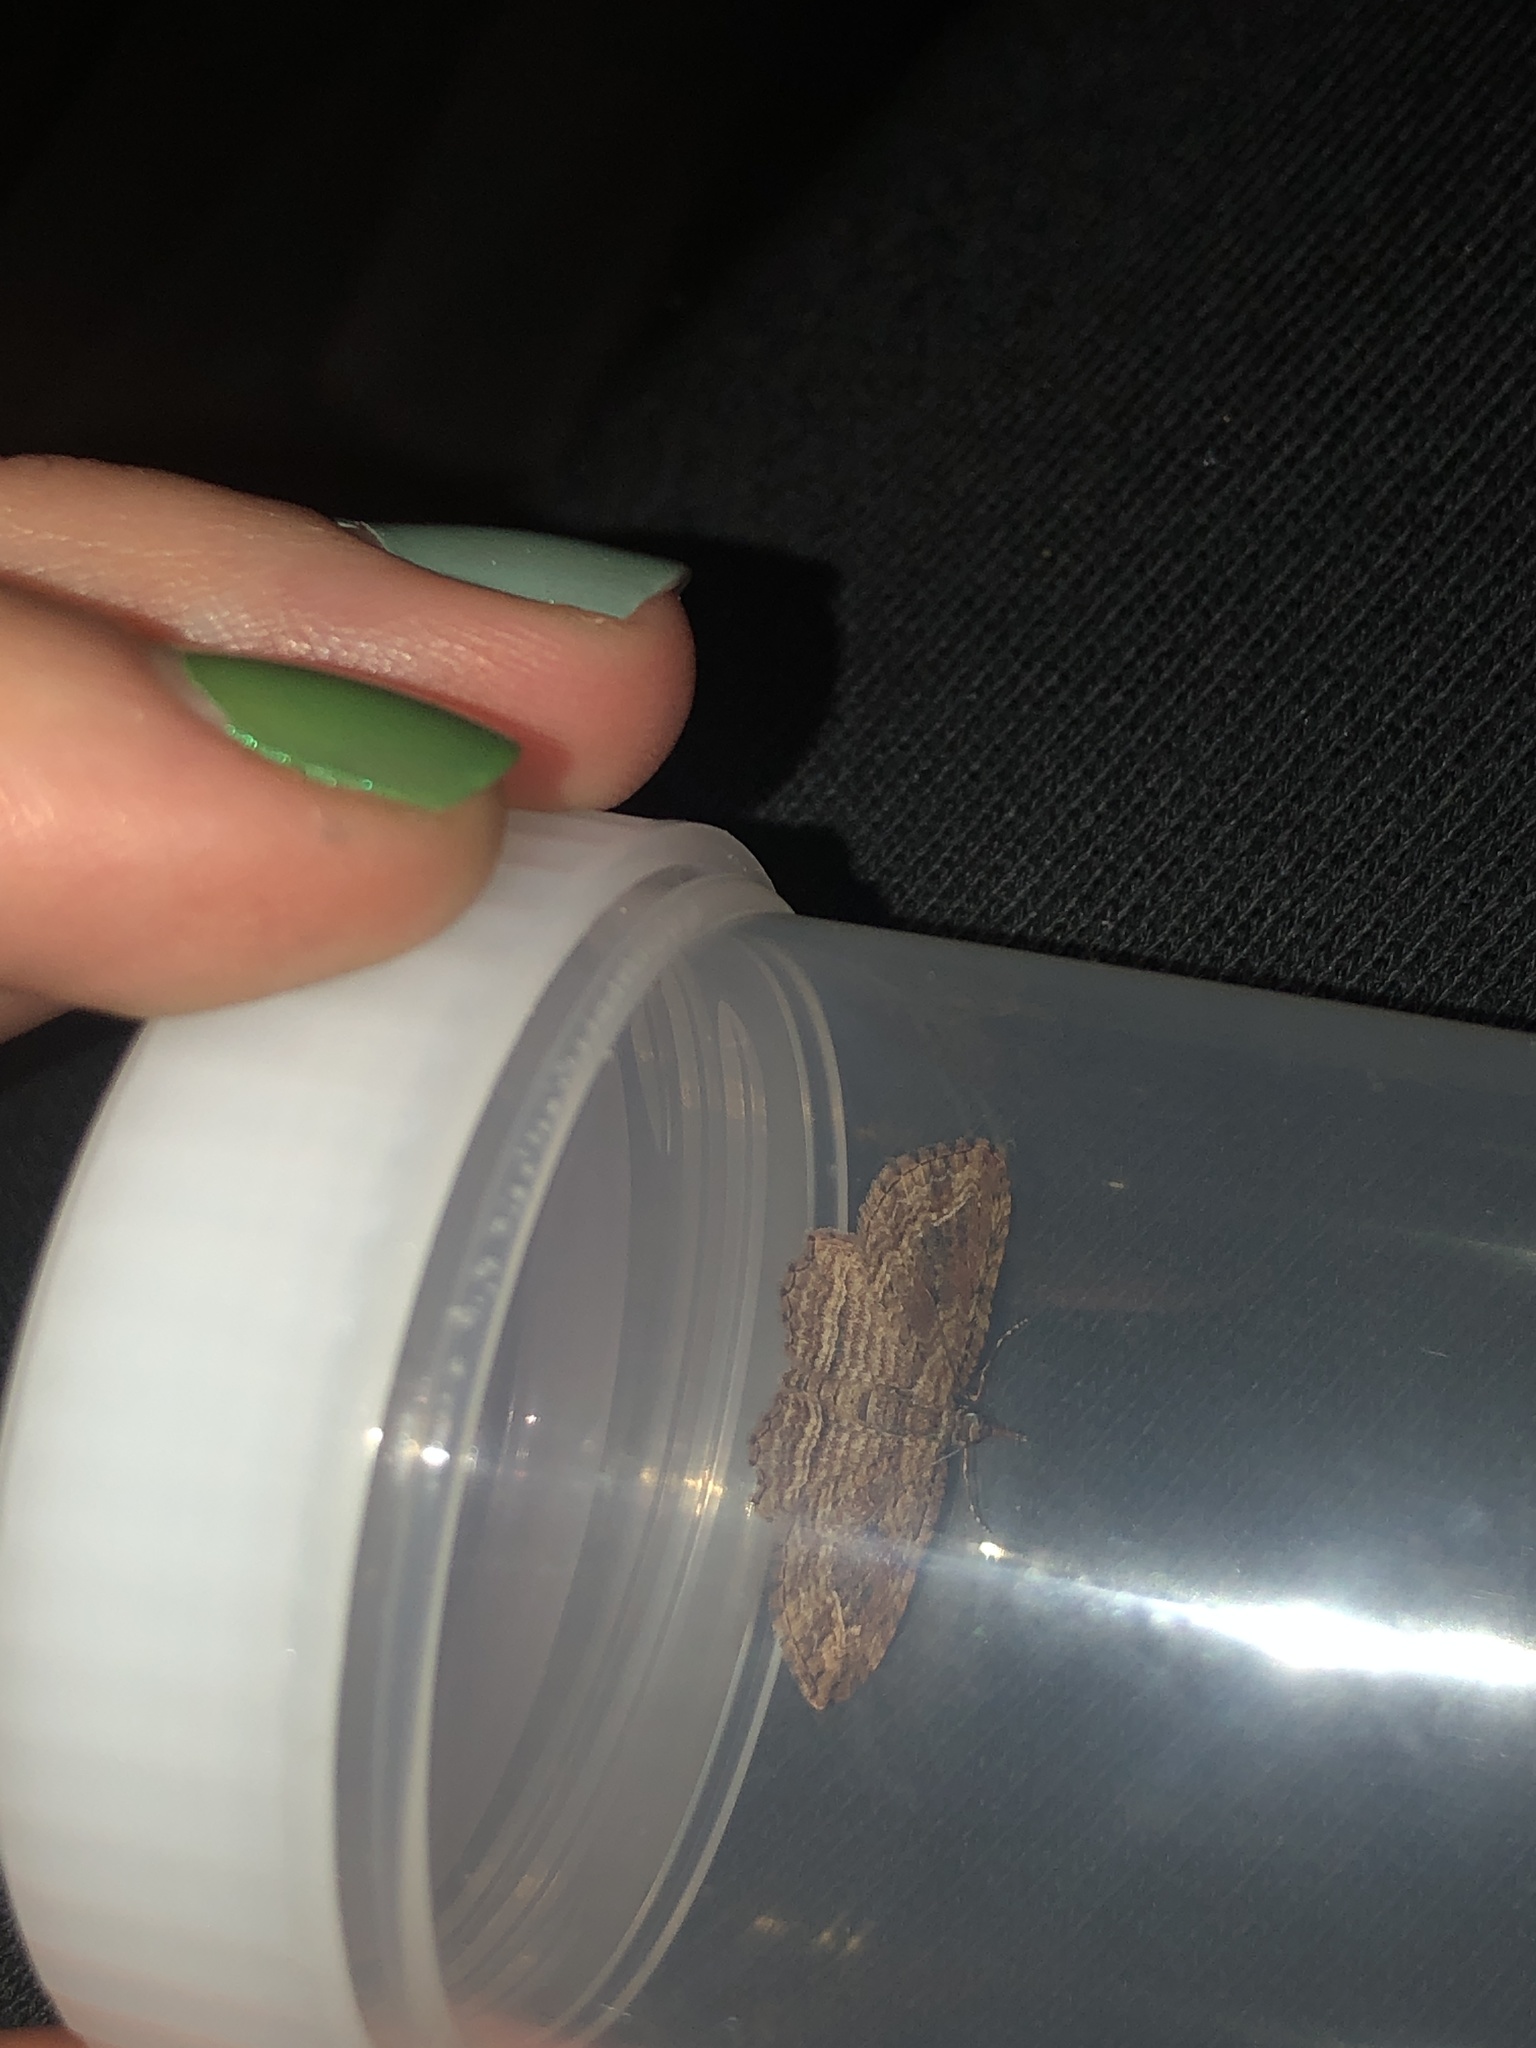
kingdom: Animalia
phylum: Arthropoda
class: Insecta
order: Lepidoptera
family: Geometridae
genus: Chloroclystis
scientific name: Chloroclystis filata
